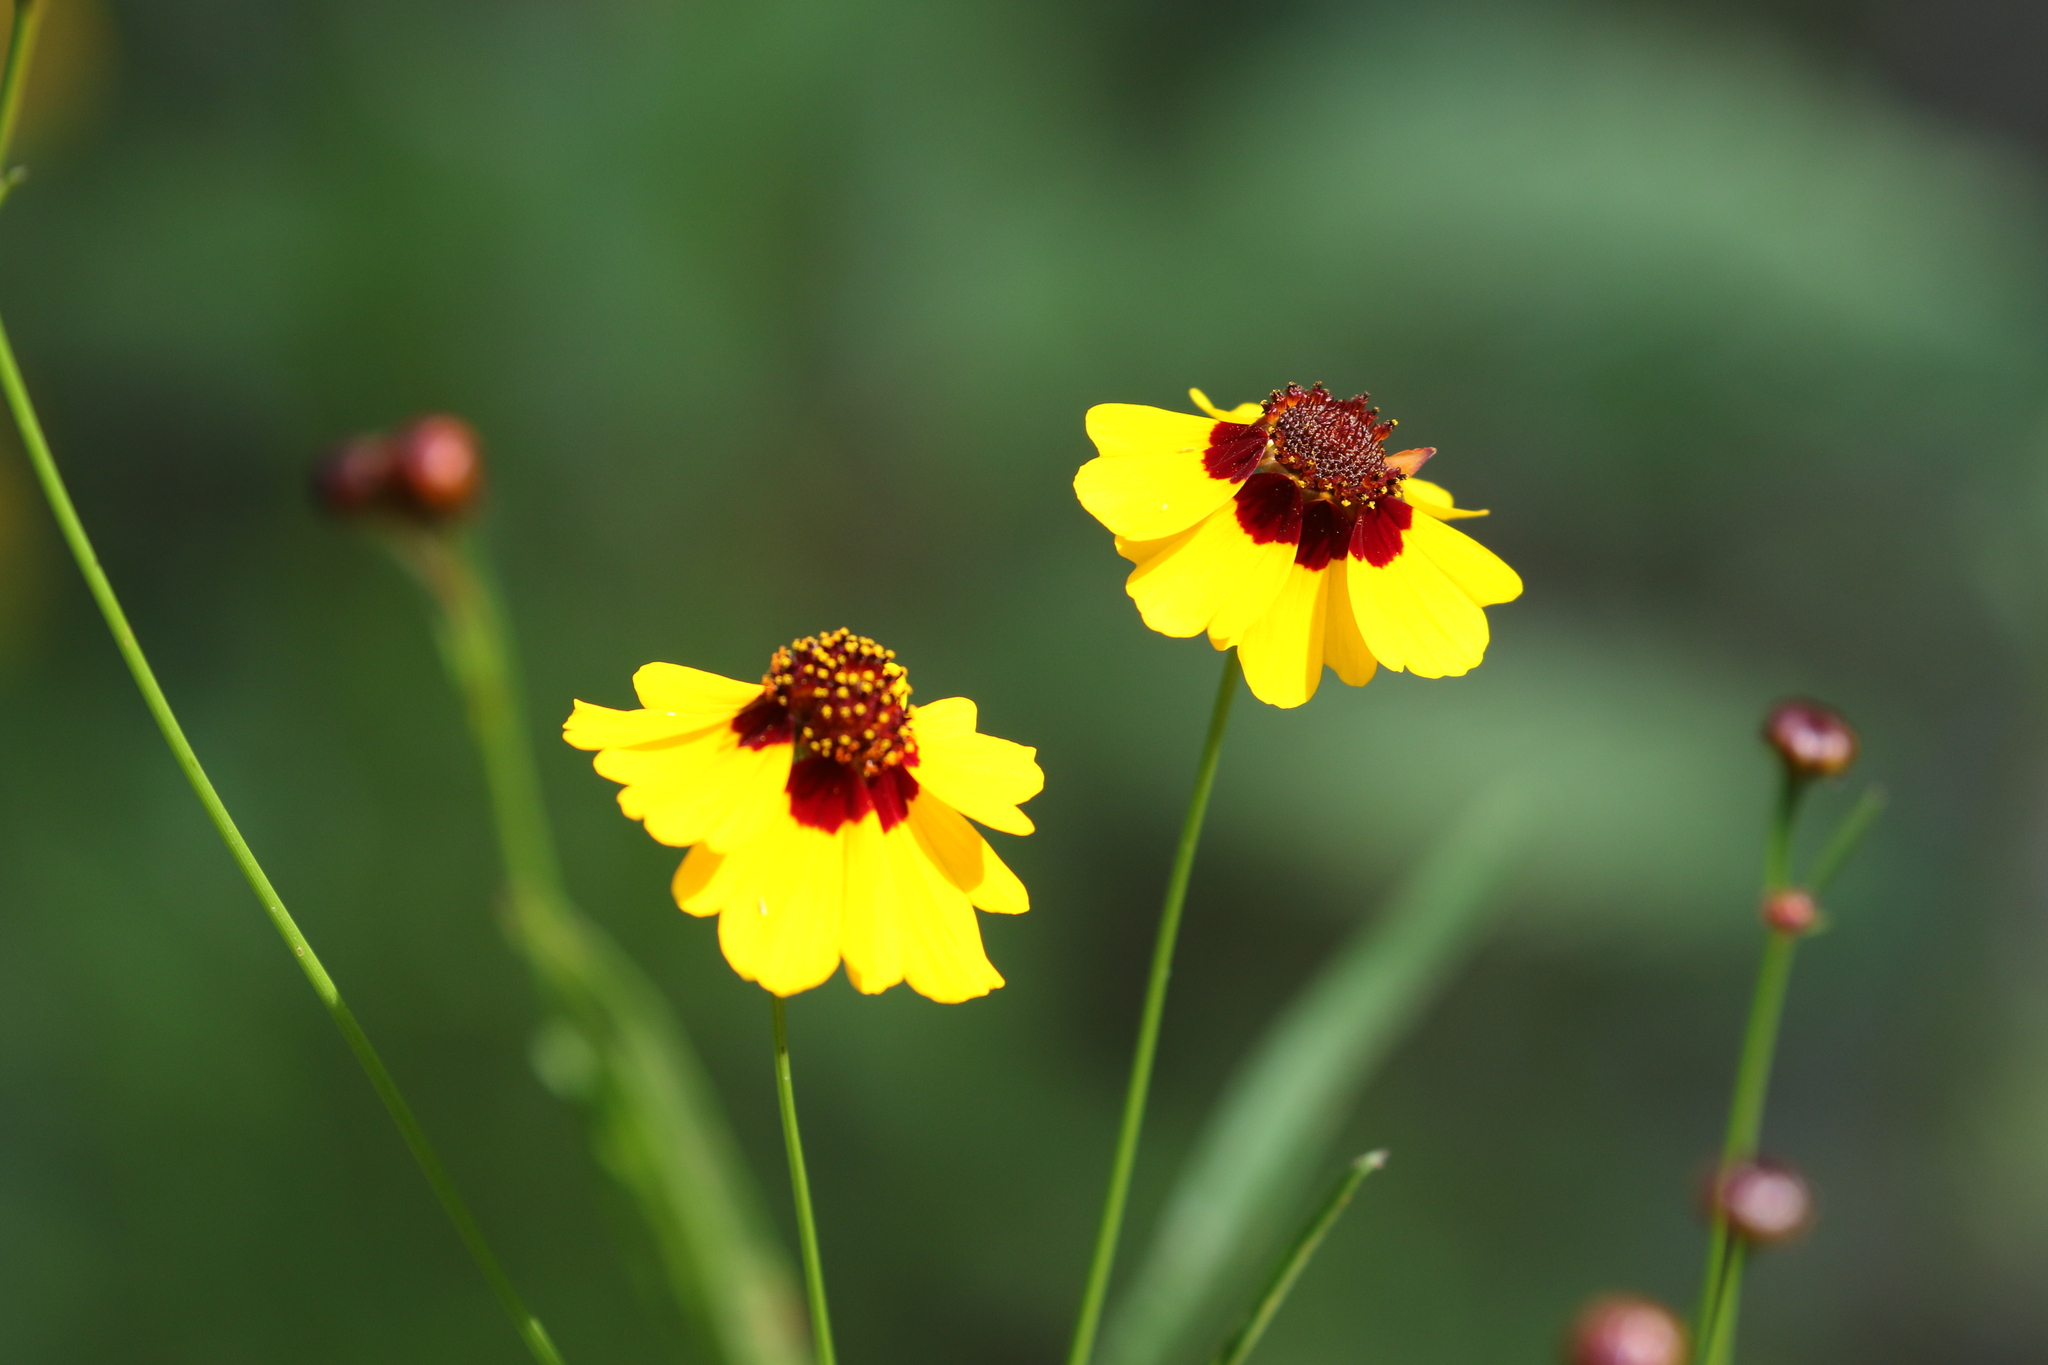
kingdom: Plantae
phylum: Tracheophyta
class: Magnoliopsida
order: Asterales
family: Asteraceae
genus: Coreopsis
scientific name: Coreopsis tinctoria
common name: Garden tickseed
